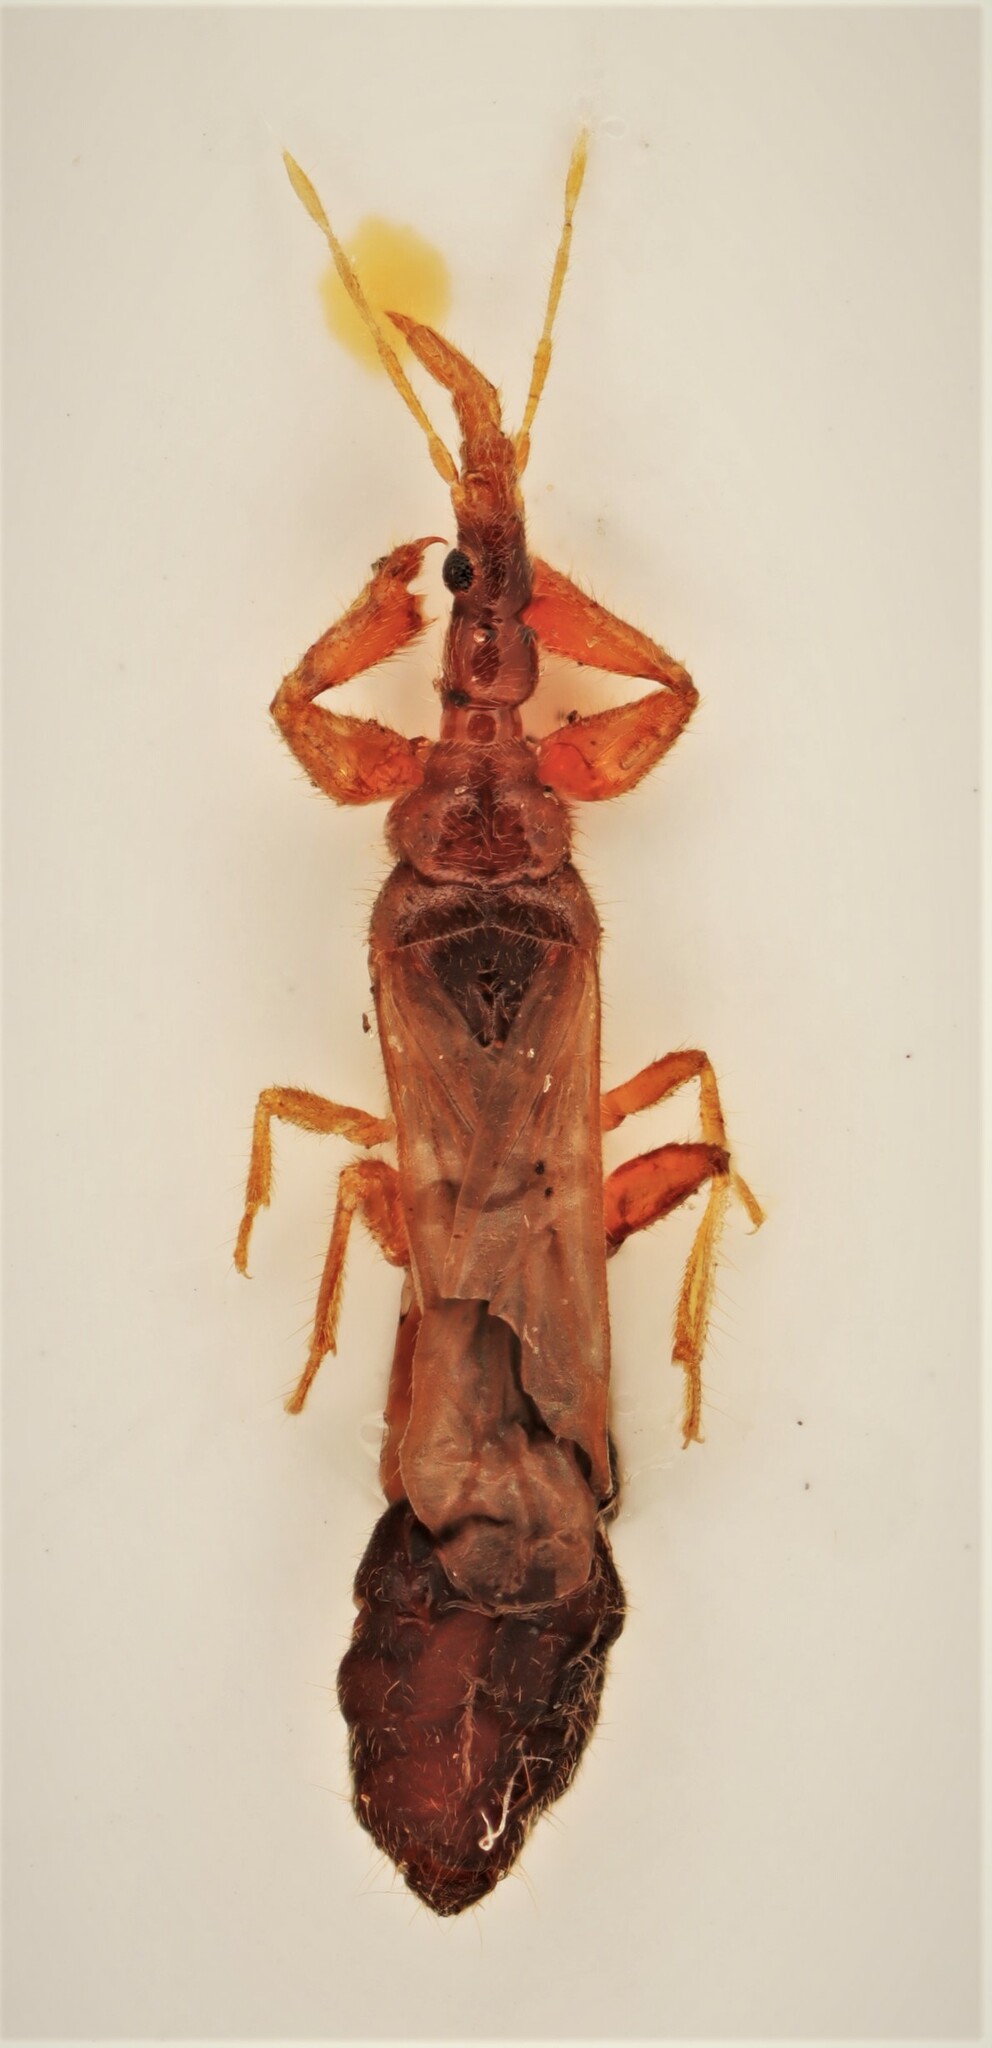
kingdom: Animalia
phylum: Arthropoda
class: Insecta
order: Hemiptera
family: Enicocephalidae
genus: Systelloderes
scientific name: Systelloderes biceps
